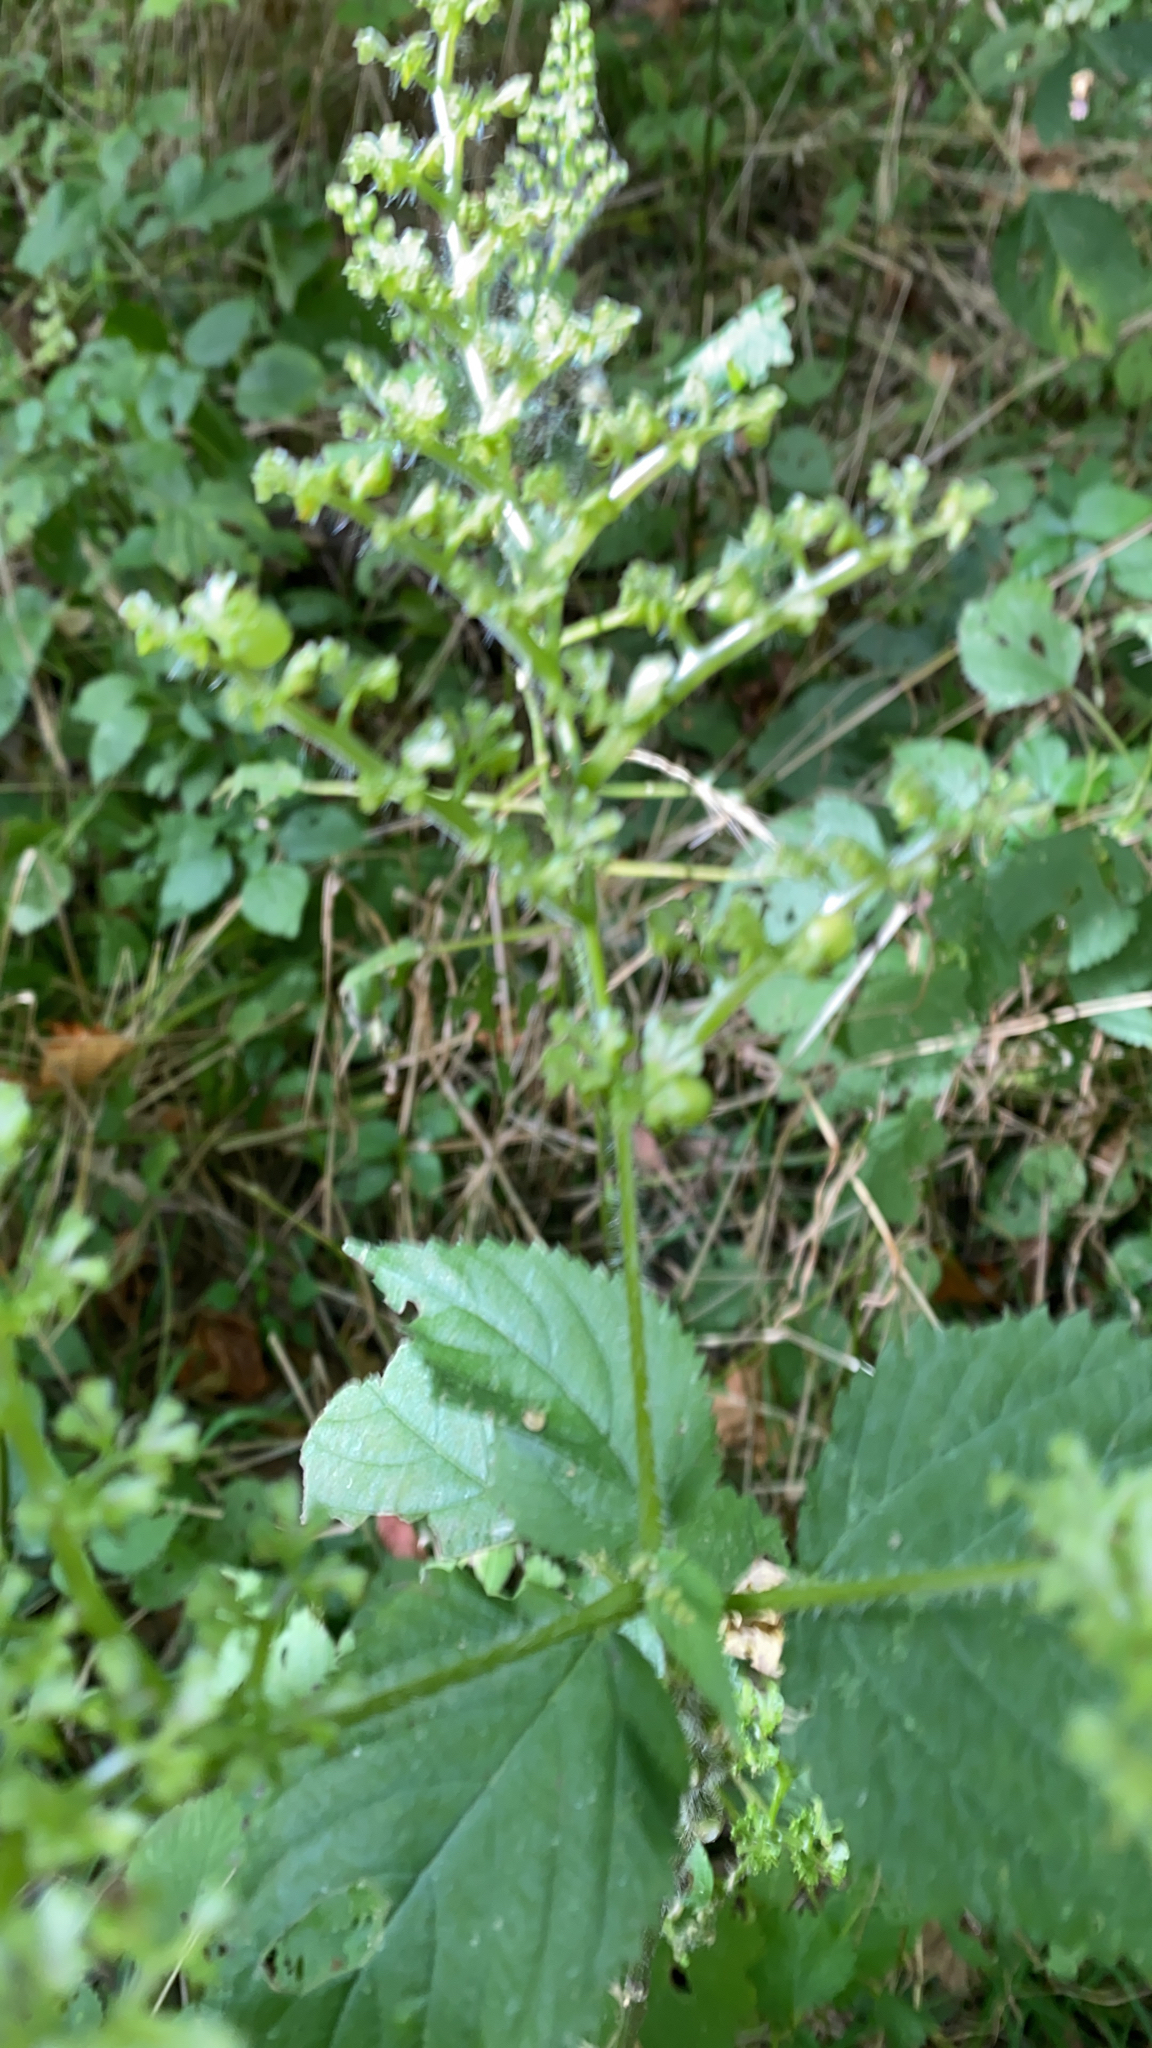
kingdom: Plantae
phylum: Tracheophyta
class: Magnoliopsida
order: Rosales
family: Urticaceae
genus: Laportea
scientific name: Laportea canadensis
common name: Canada nettle
